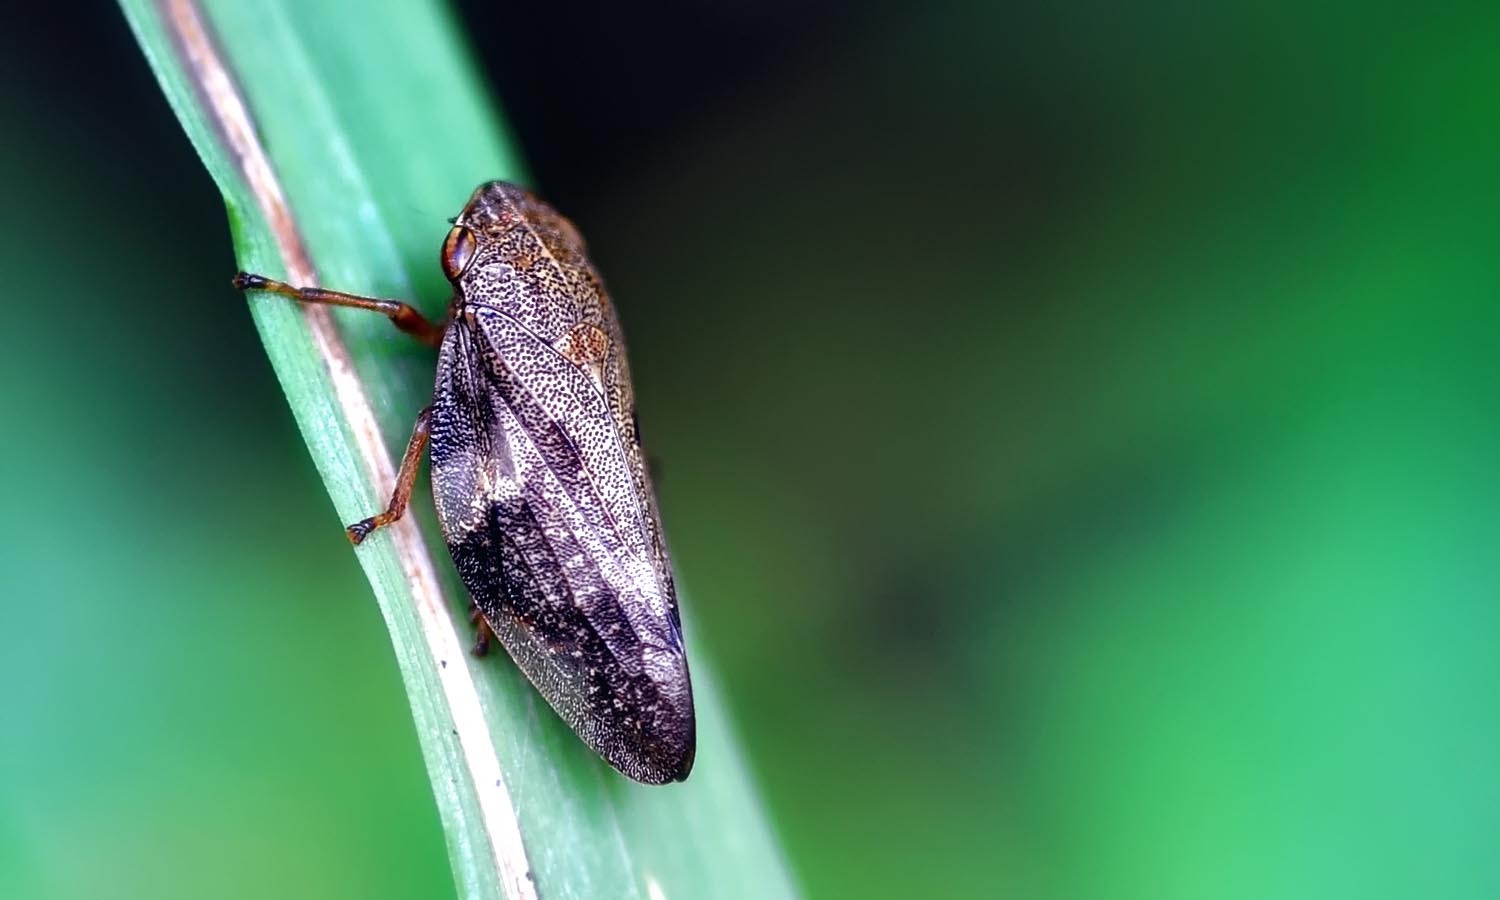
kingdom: Animalia
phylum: Arthropoda
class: Insecta
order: Hemiptera
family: Aphrophoridae
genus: Aphrophora
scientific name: Aphrophora alni
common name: European alder spittlebug
